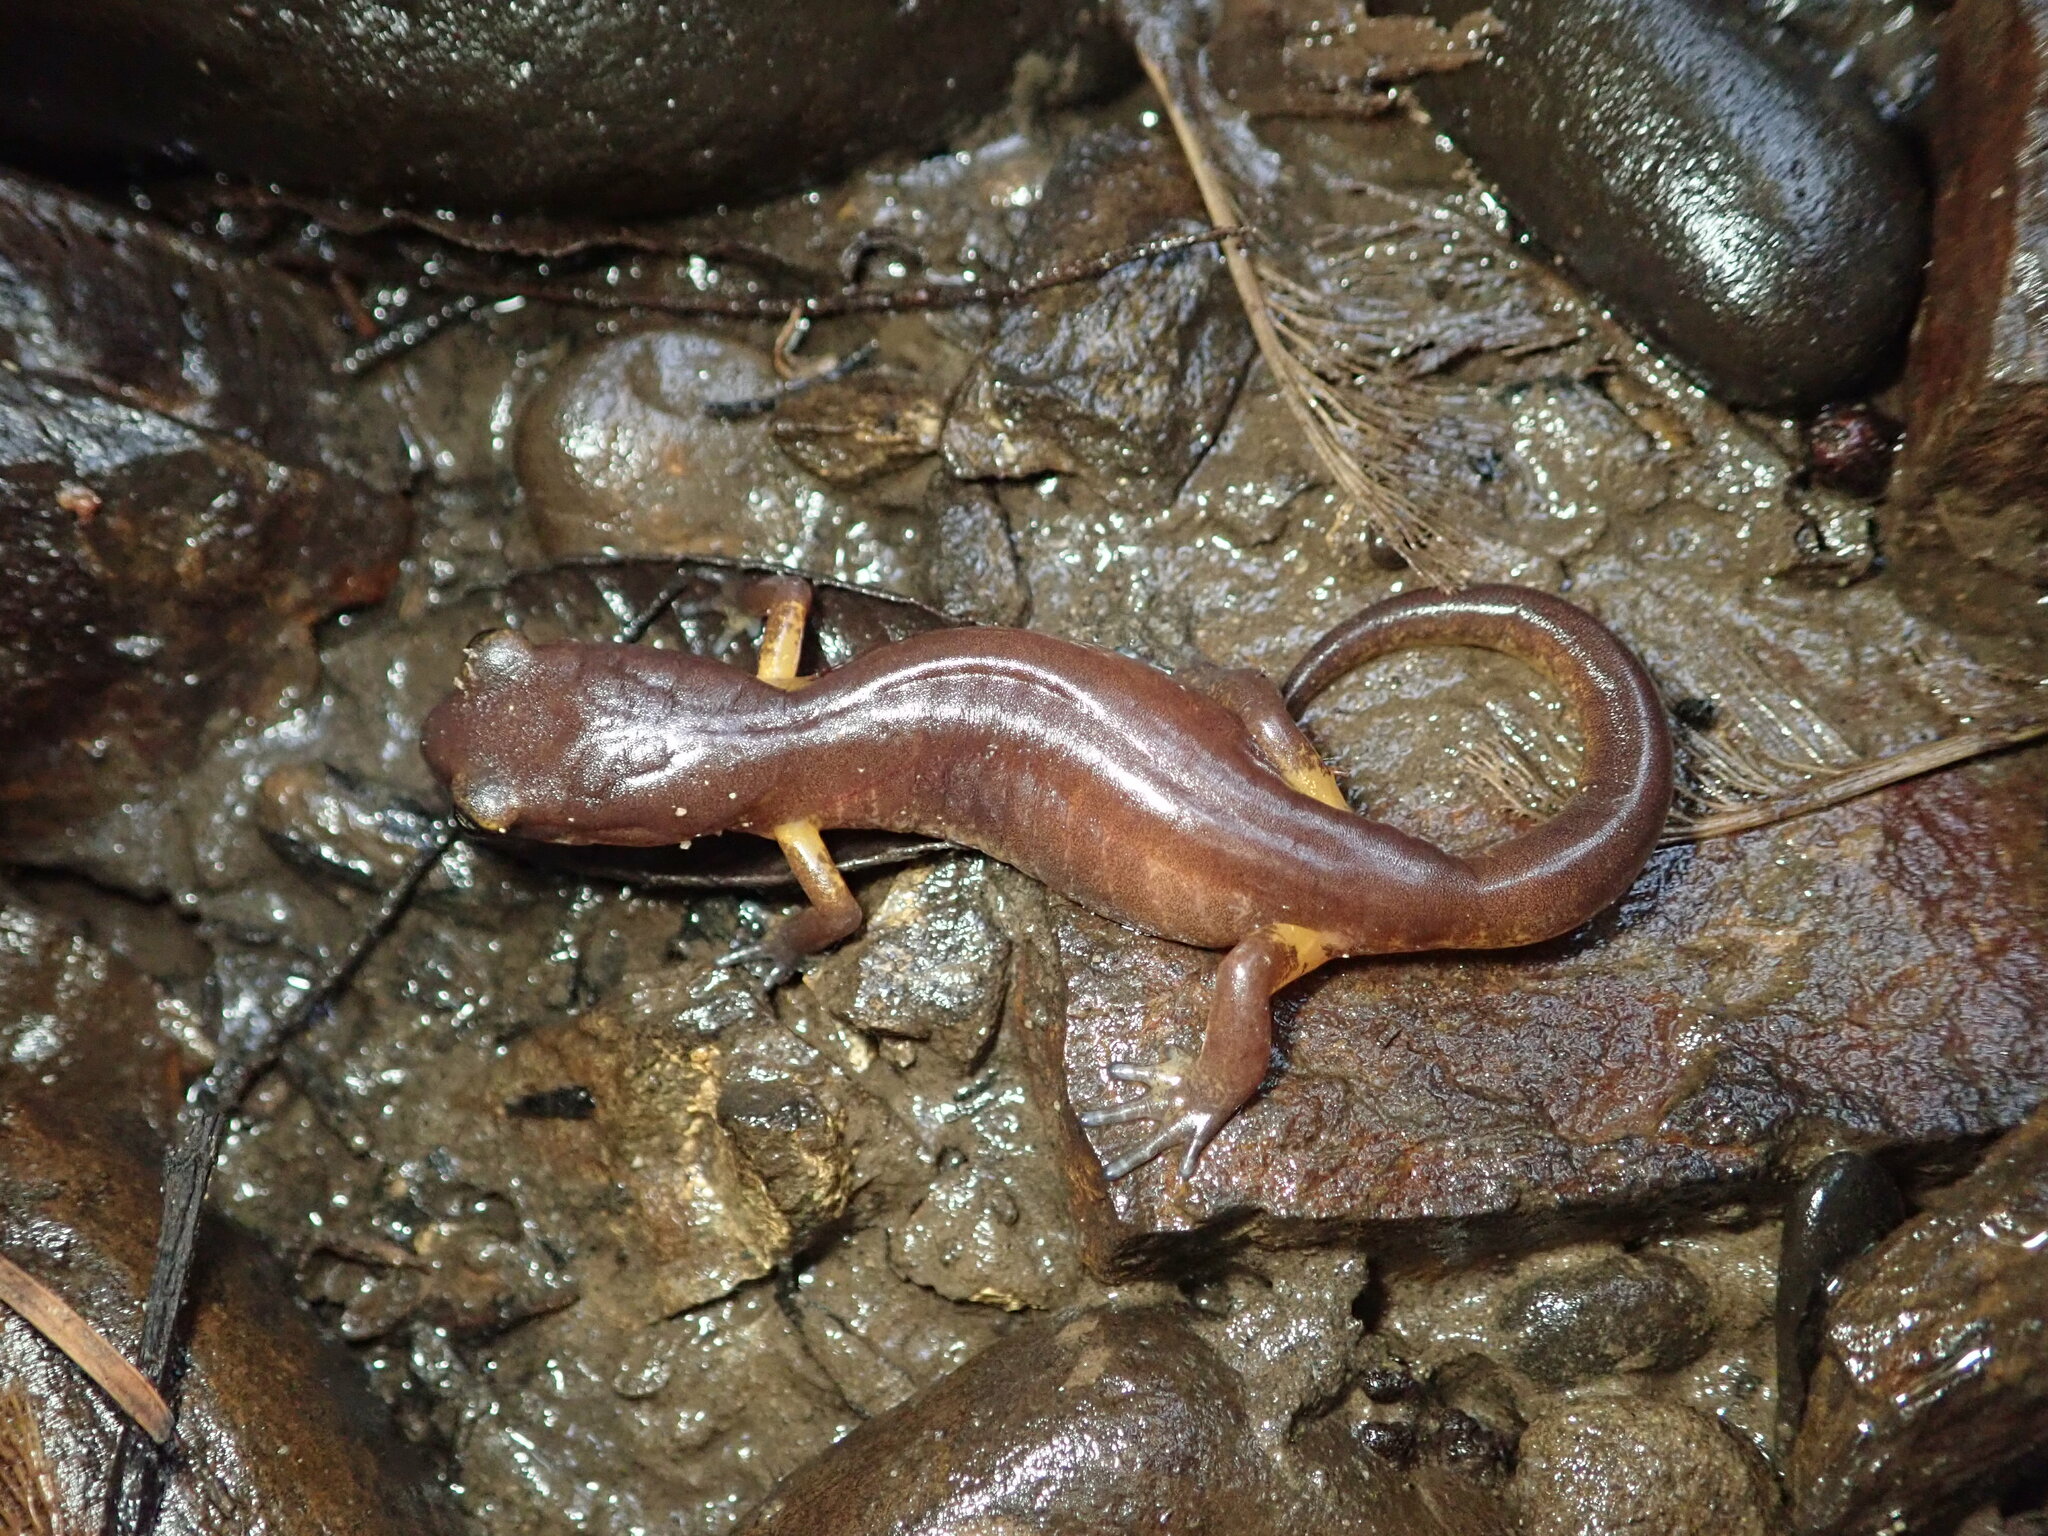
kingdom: Animalia
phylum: Chordata
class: Amphibia
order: Caudata
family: Plethodontidae
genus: Ensatina
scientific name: Ensatina eschscholtzii
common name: Ensatina
